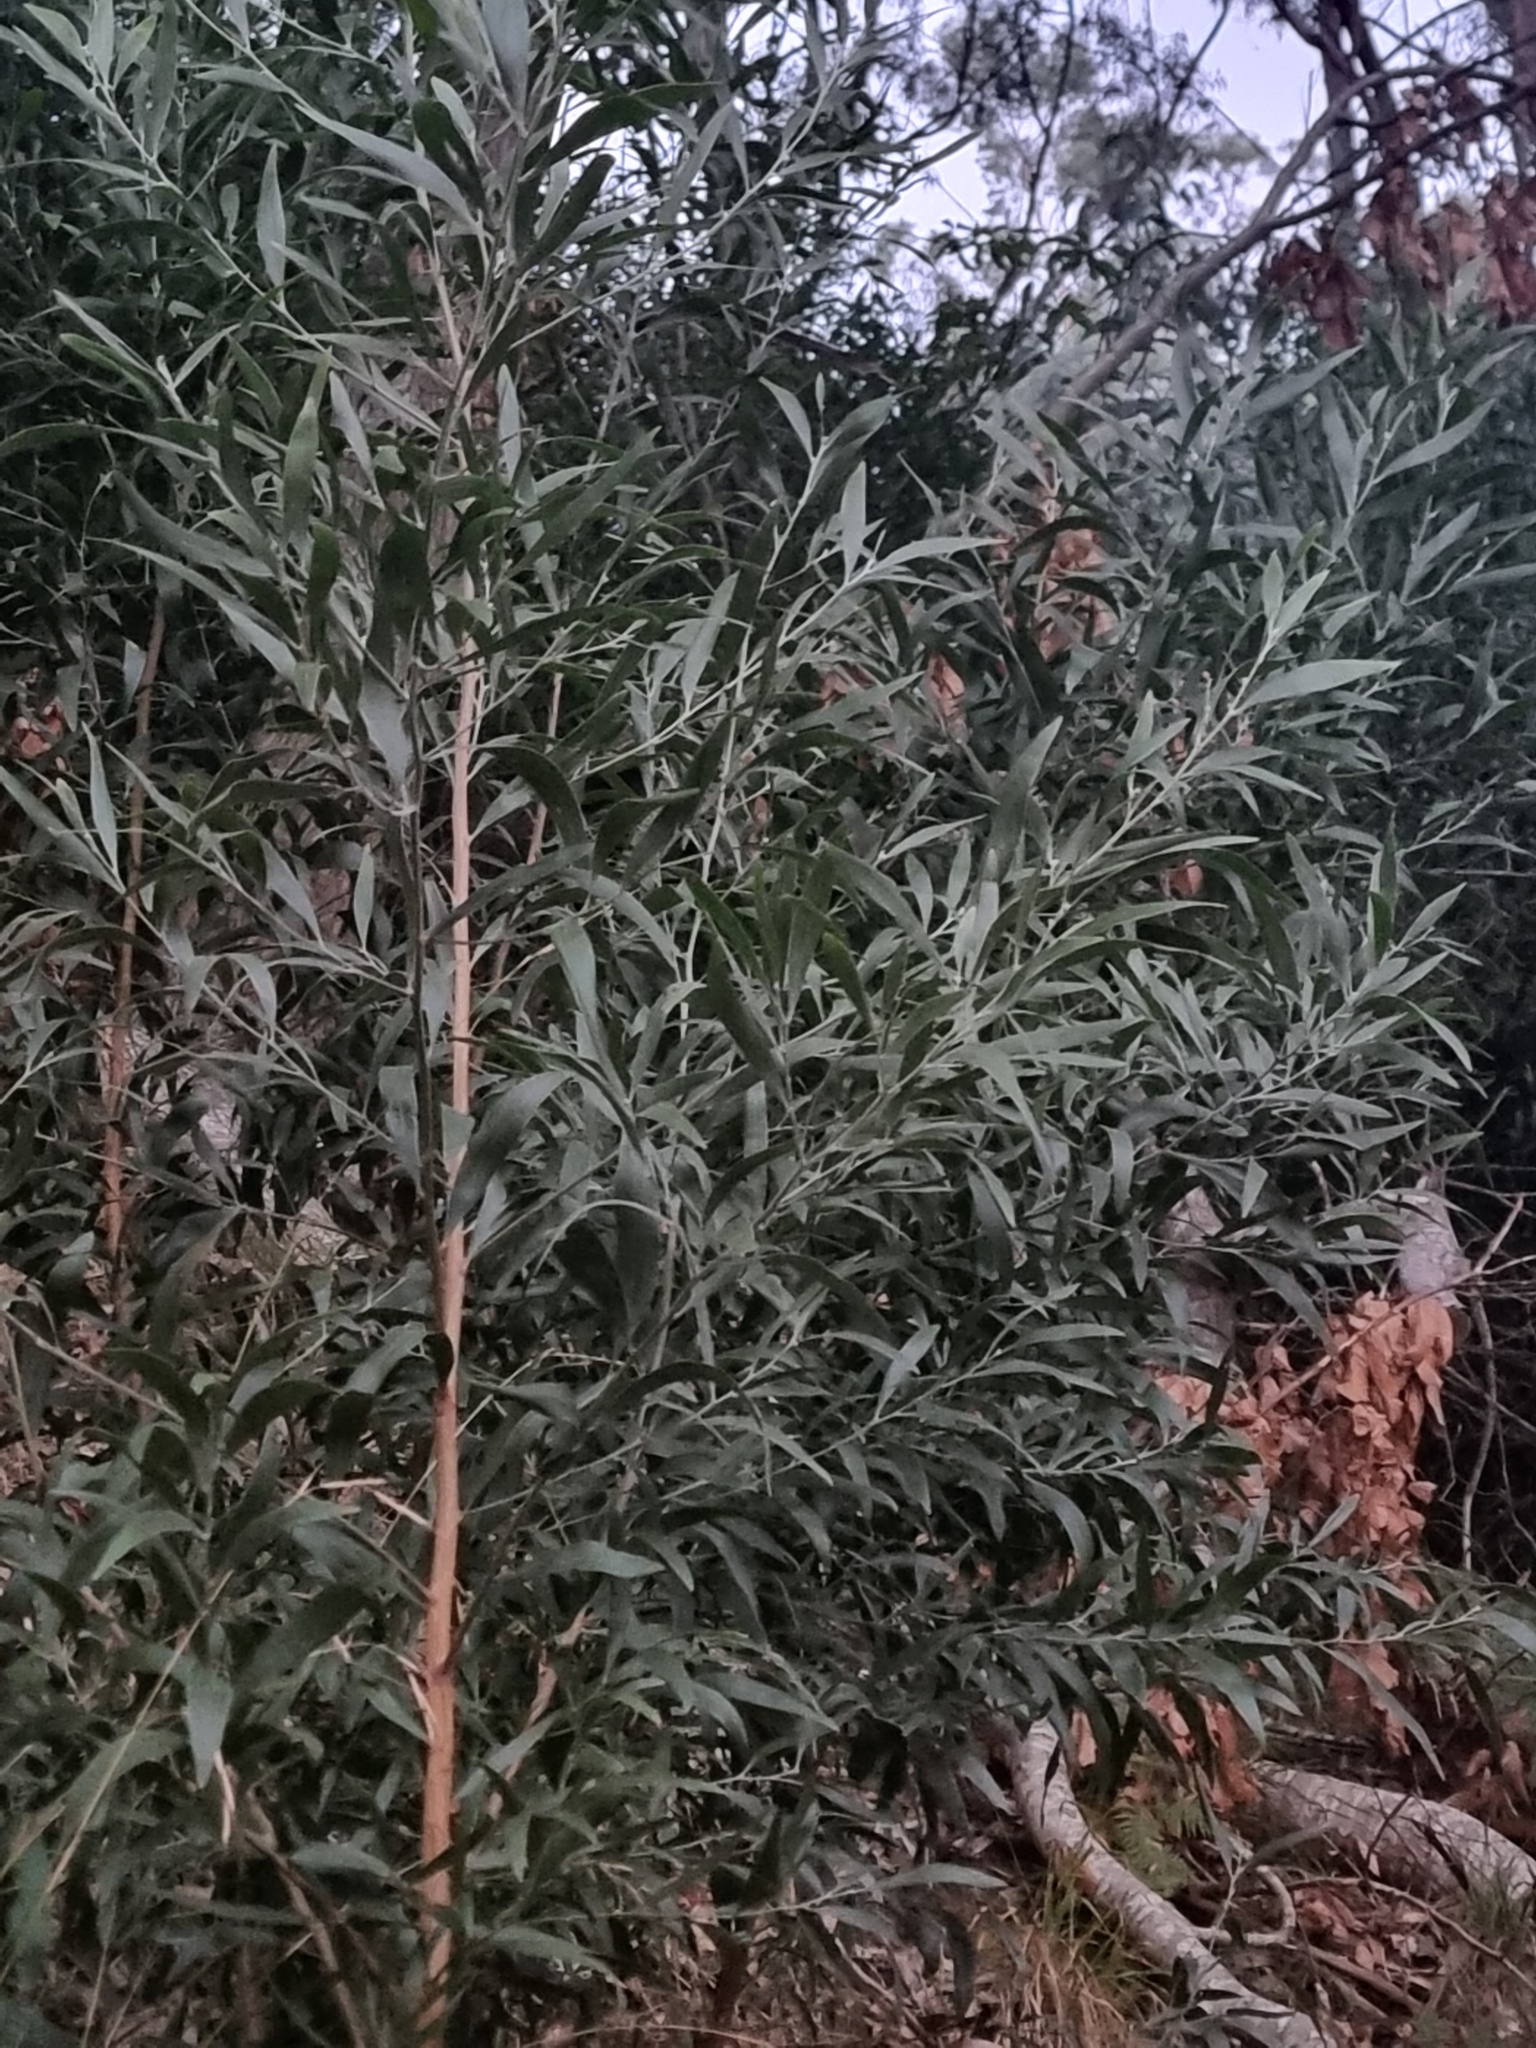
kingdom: Plantae
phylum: Tracheophyta
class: Magnoliopsida
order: Fabales
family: Fabaceae
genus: Acacia
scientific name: Acacia melanoxylon
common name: Blackwood
